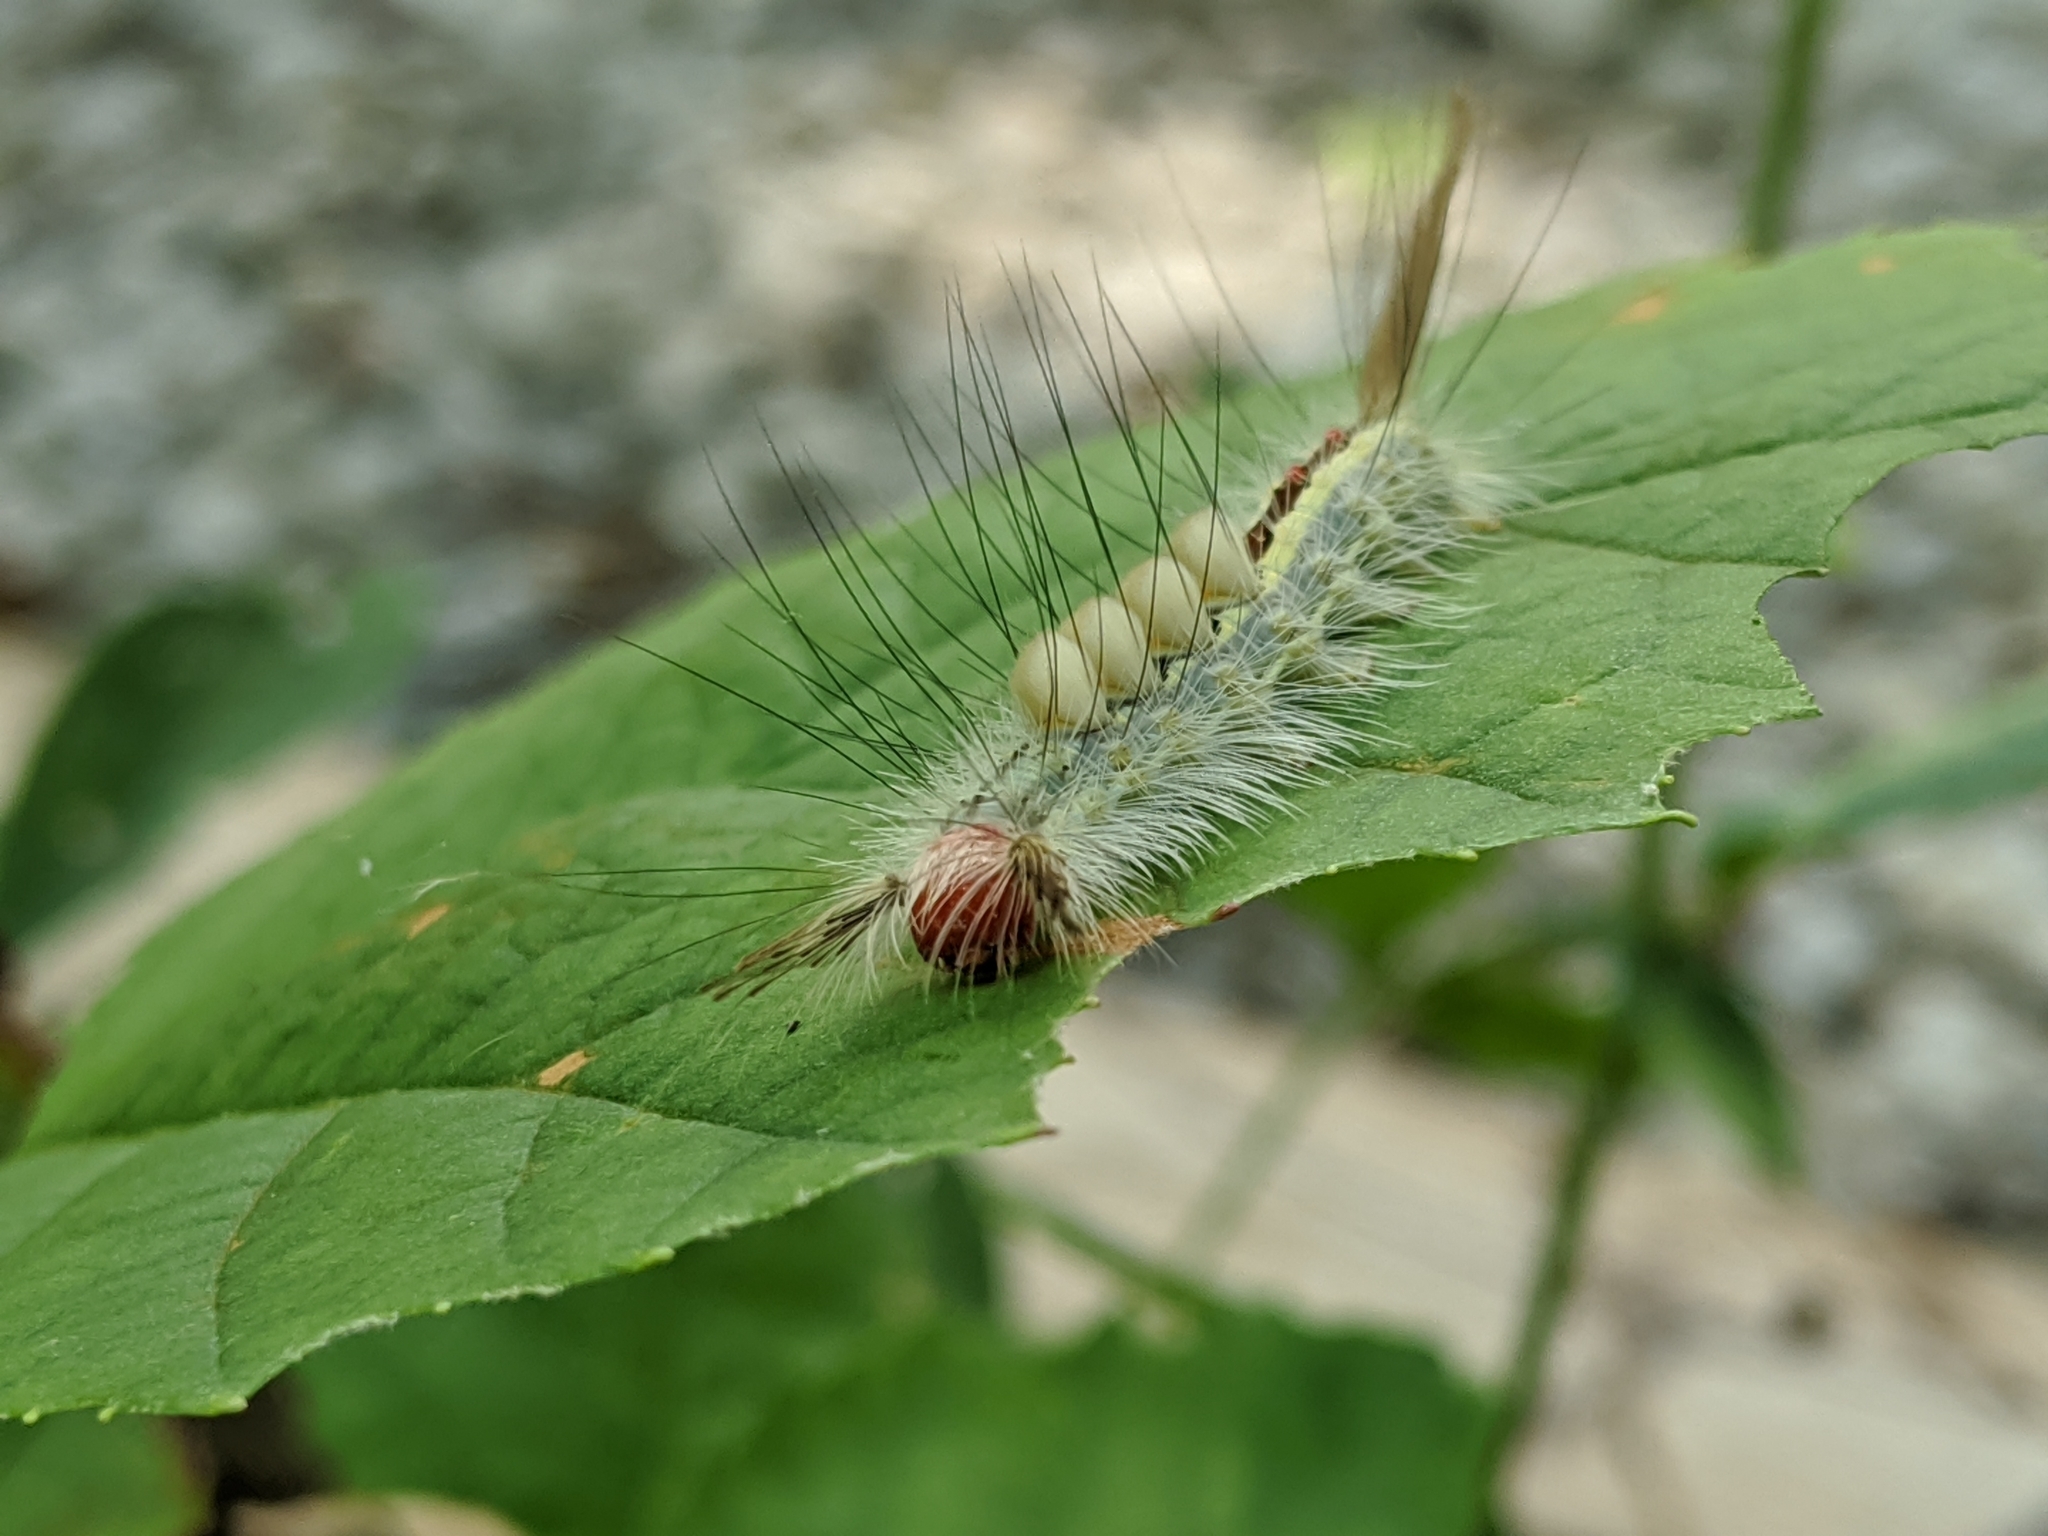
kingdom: Animalia
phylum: Arthropoda
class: Insecta
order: Lepidoptera
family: Erebidae
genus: Orgyia
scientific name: Orgyia leucostigma
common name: White-marked tussock moth
